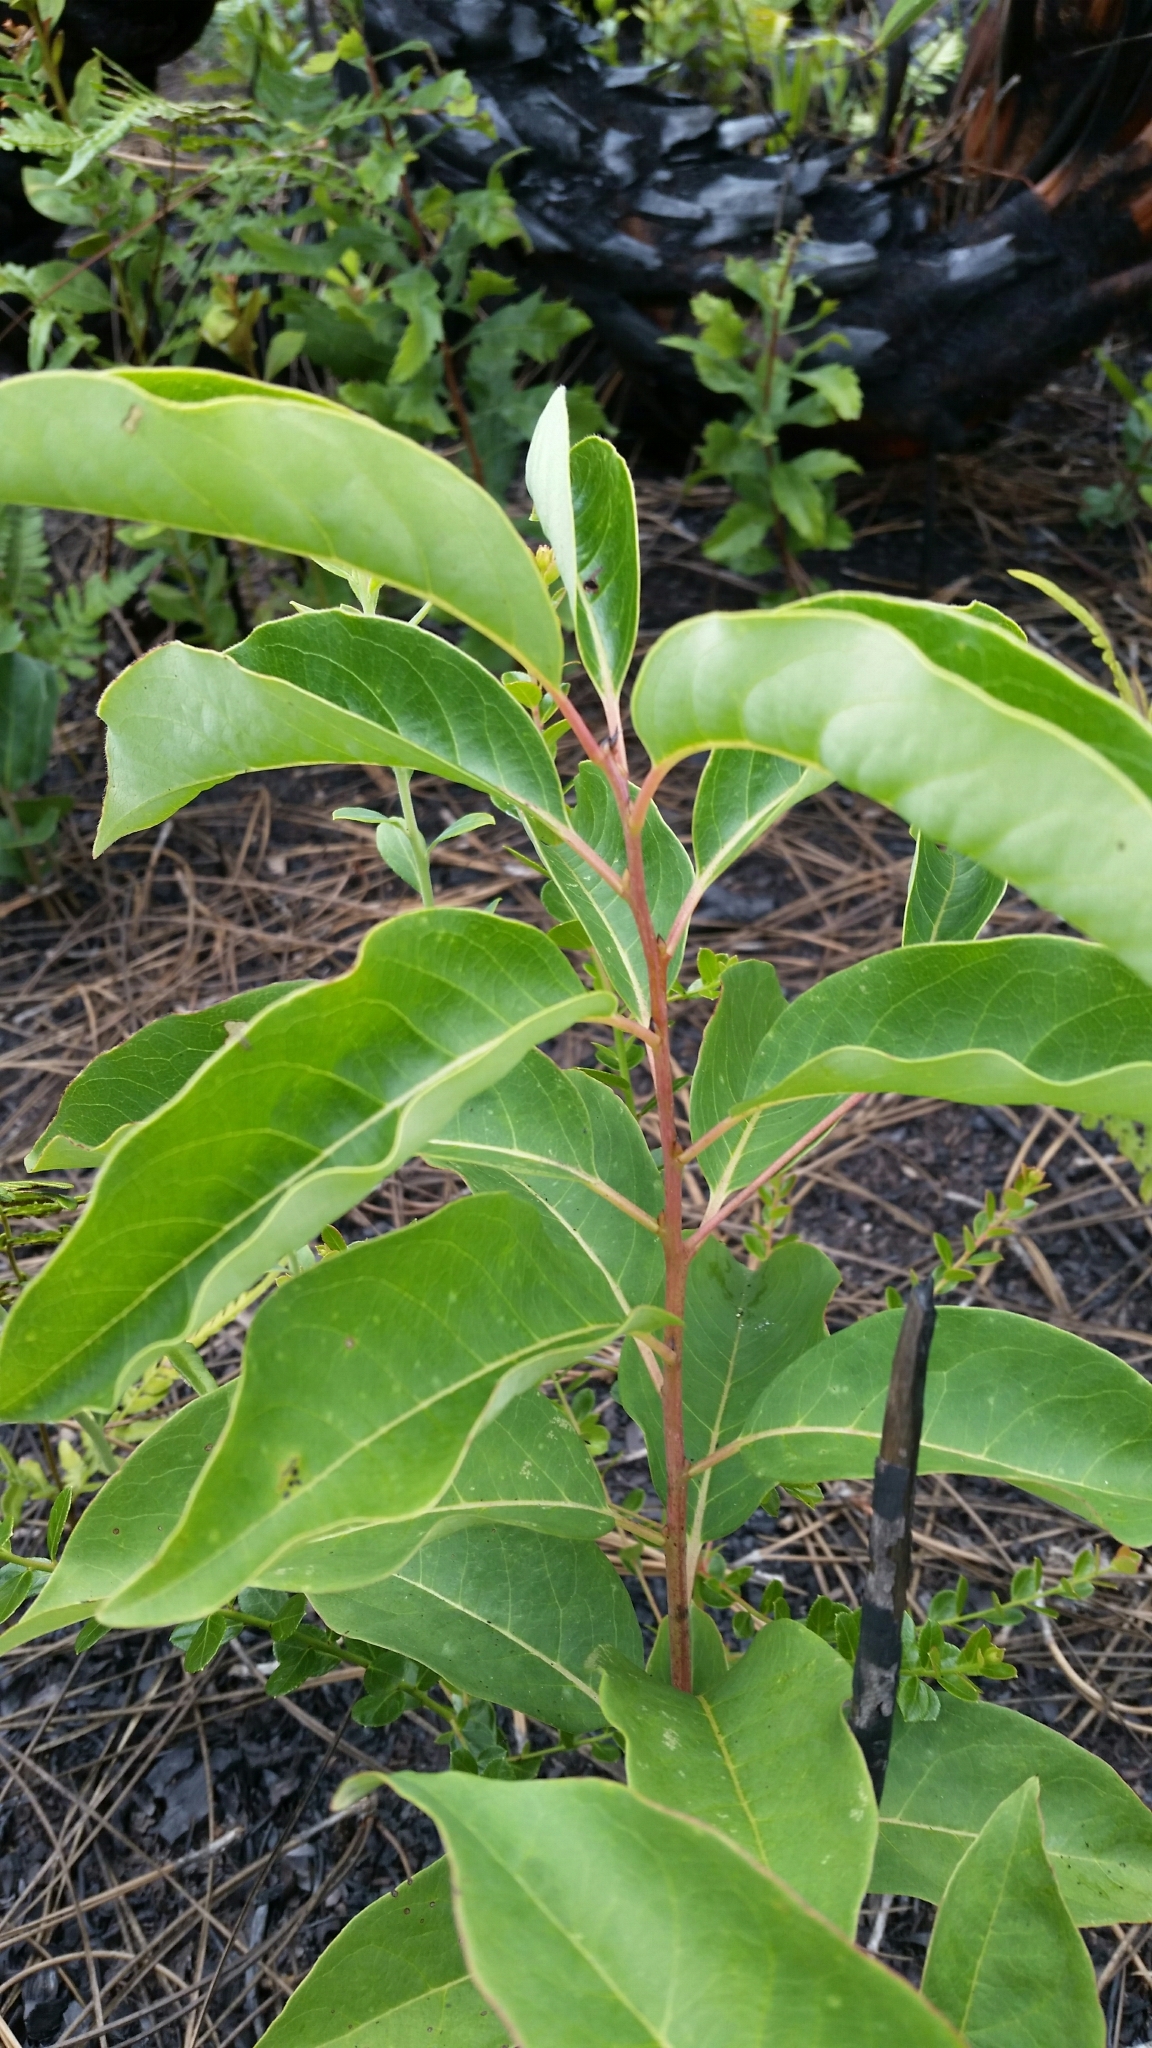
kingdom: Plantae
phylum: Tracheophyta
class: Magnoliopsida
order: Ericales
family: Ebenaceae
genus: Diospyros
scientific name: Diospyros virginiana
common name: Persimmon
